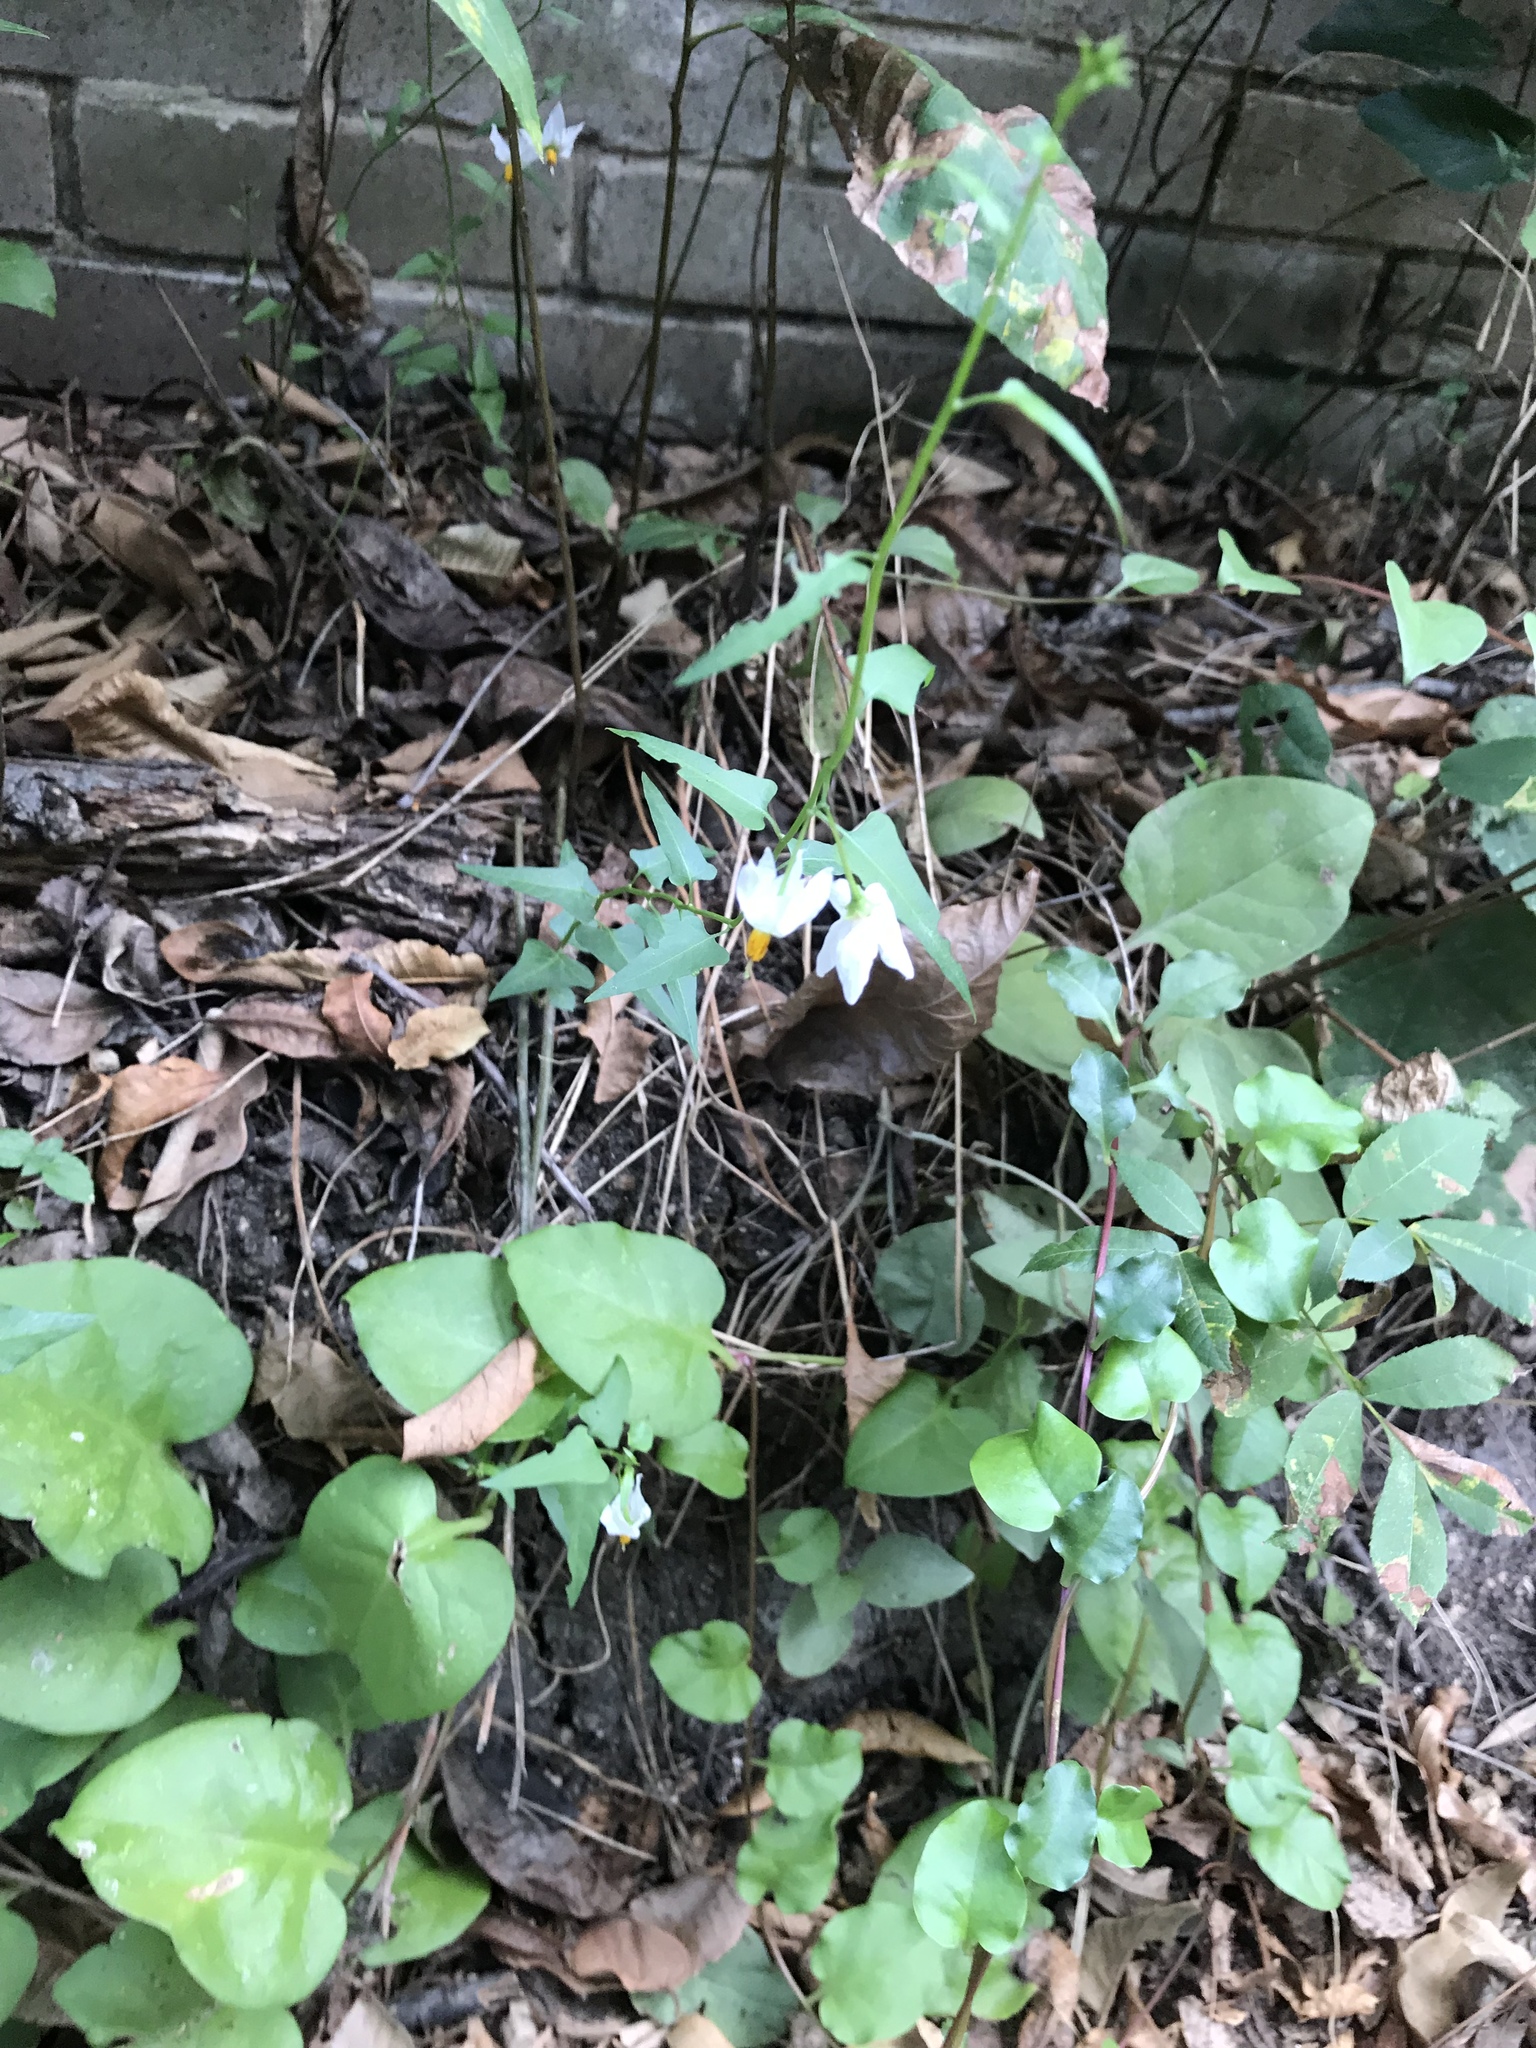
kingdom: Plantae
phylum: Tracheophyta
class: Magnoliopsida
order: Solanales
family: Solanaceae
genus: Solanum
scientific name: Solanum triquetrum
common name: Texas nightshade
